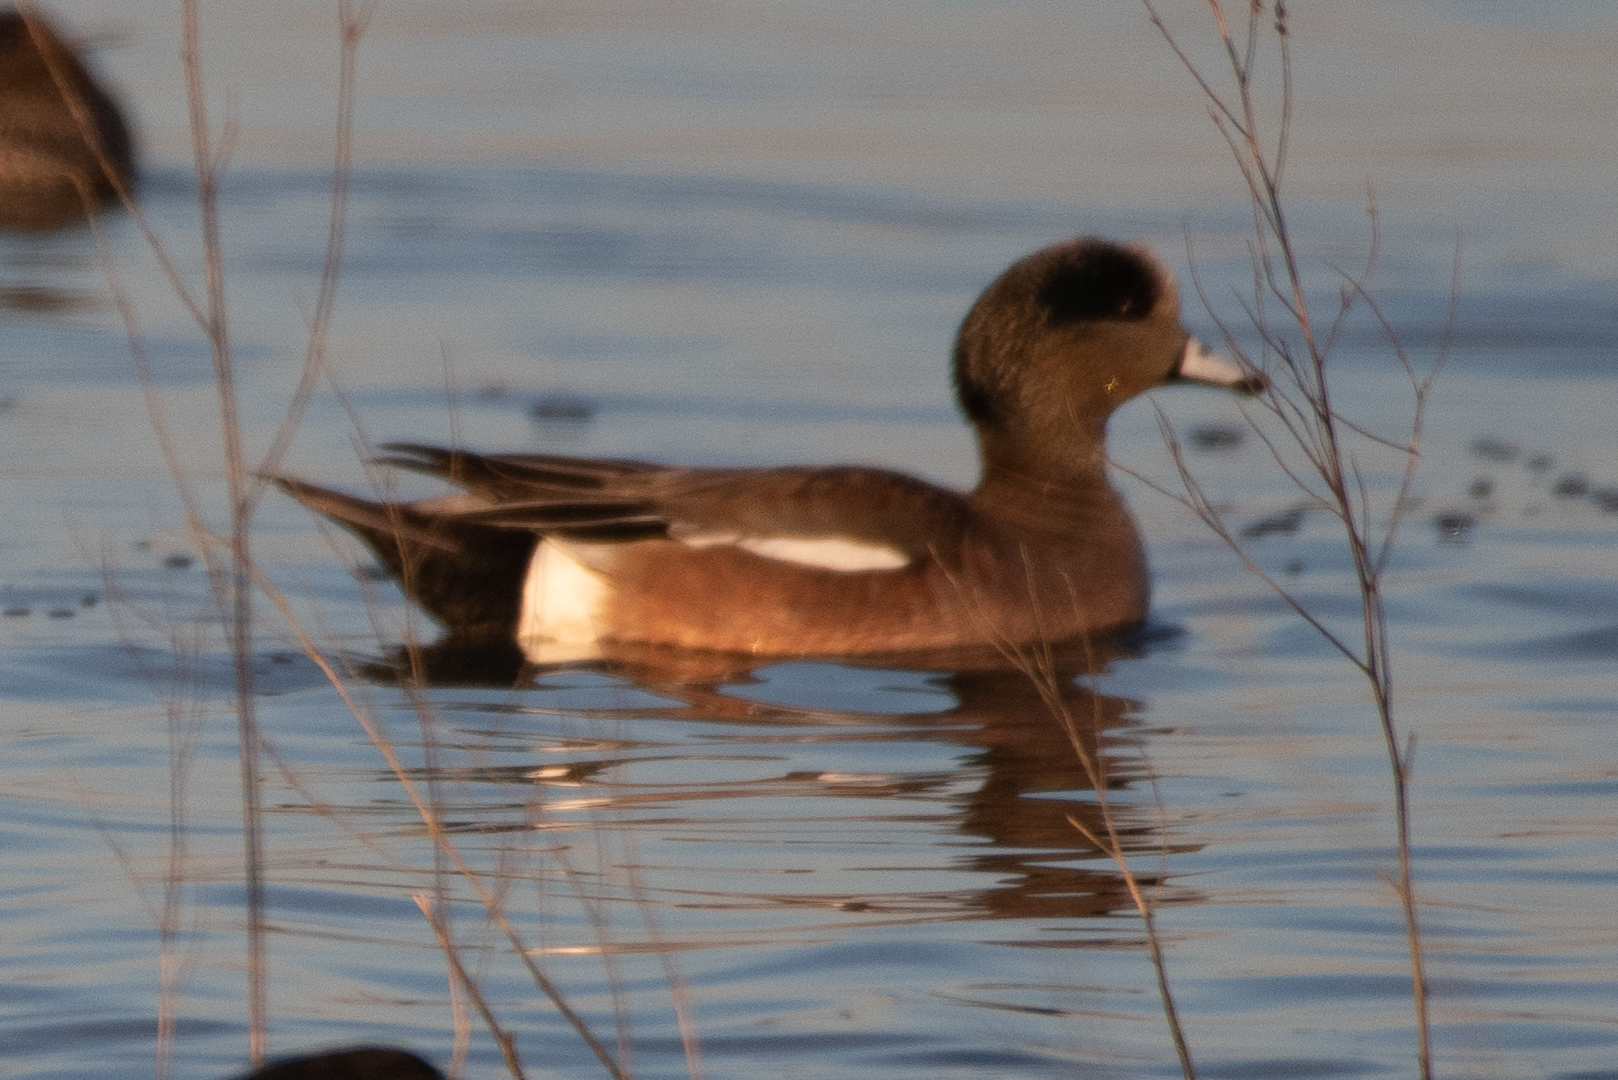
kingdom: Animalia
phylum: Chordata
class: Aves
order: Anseriformes
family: Anatidae
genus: Mareca
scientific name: Mareca americana
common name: American wigeon
